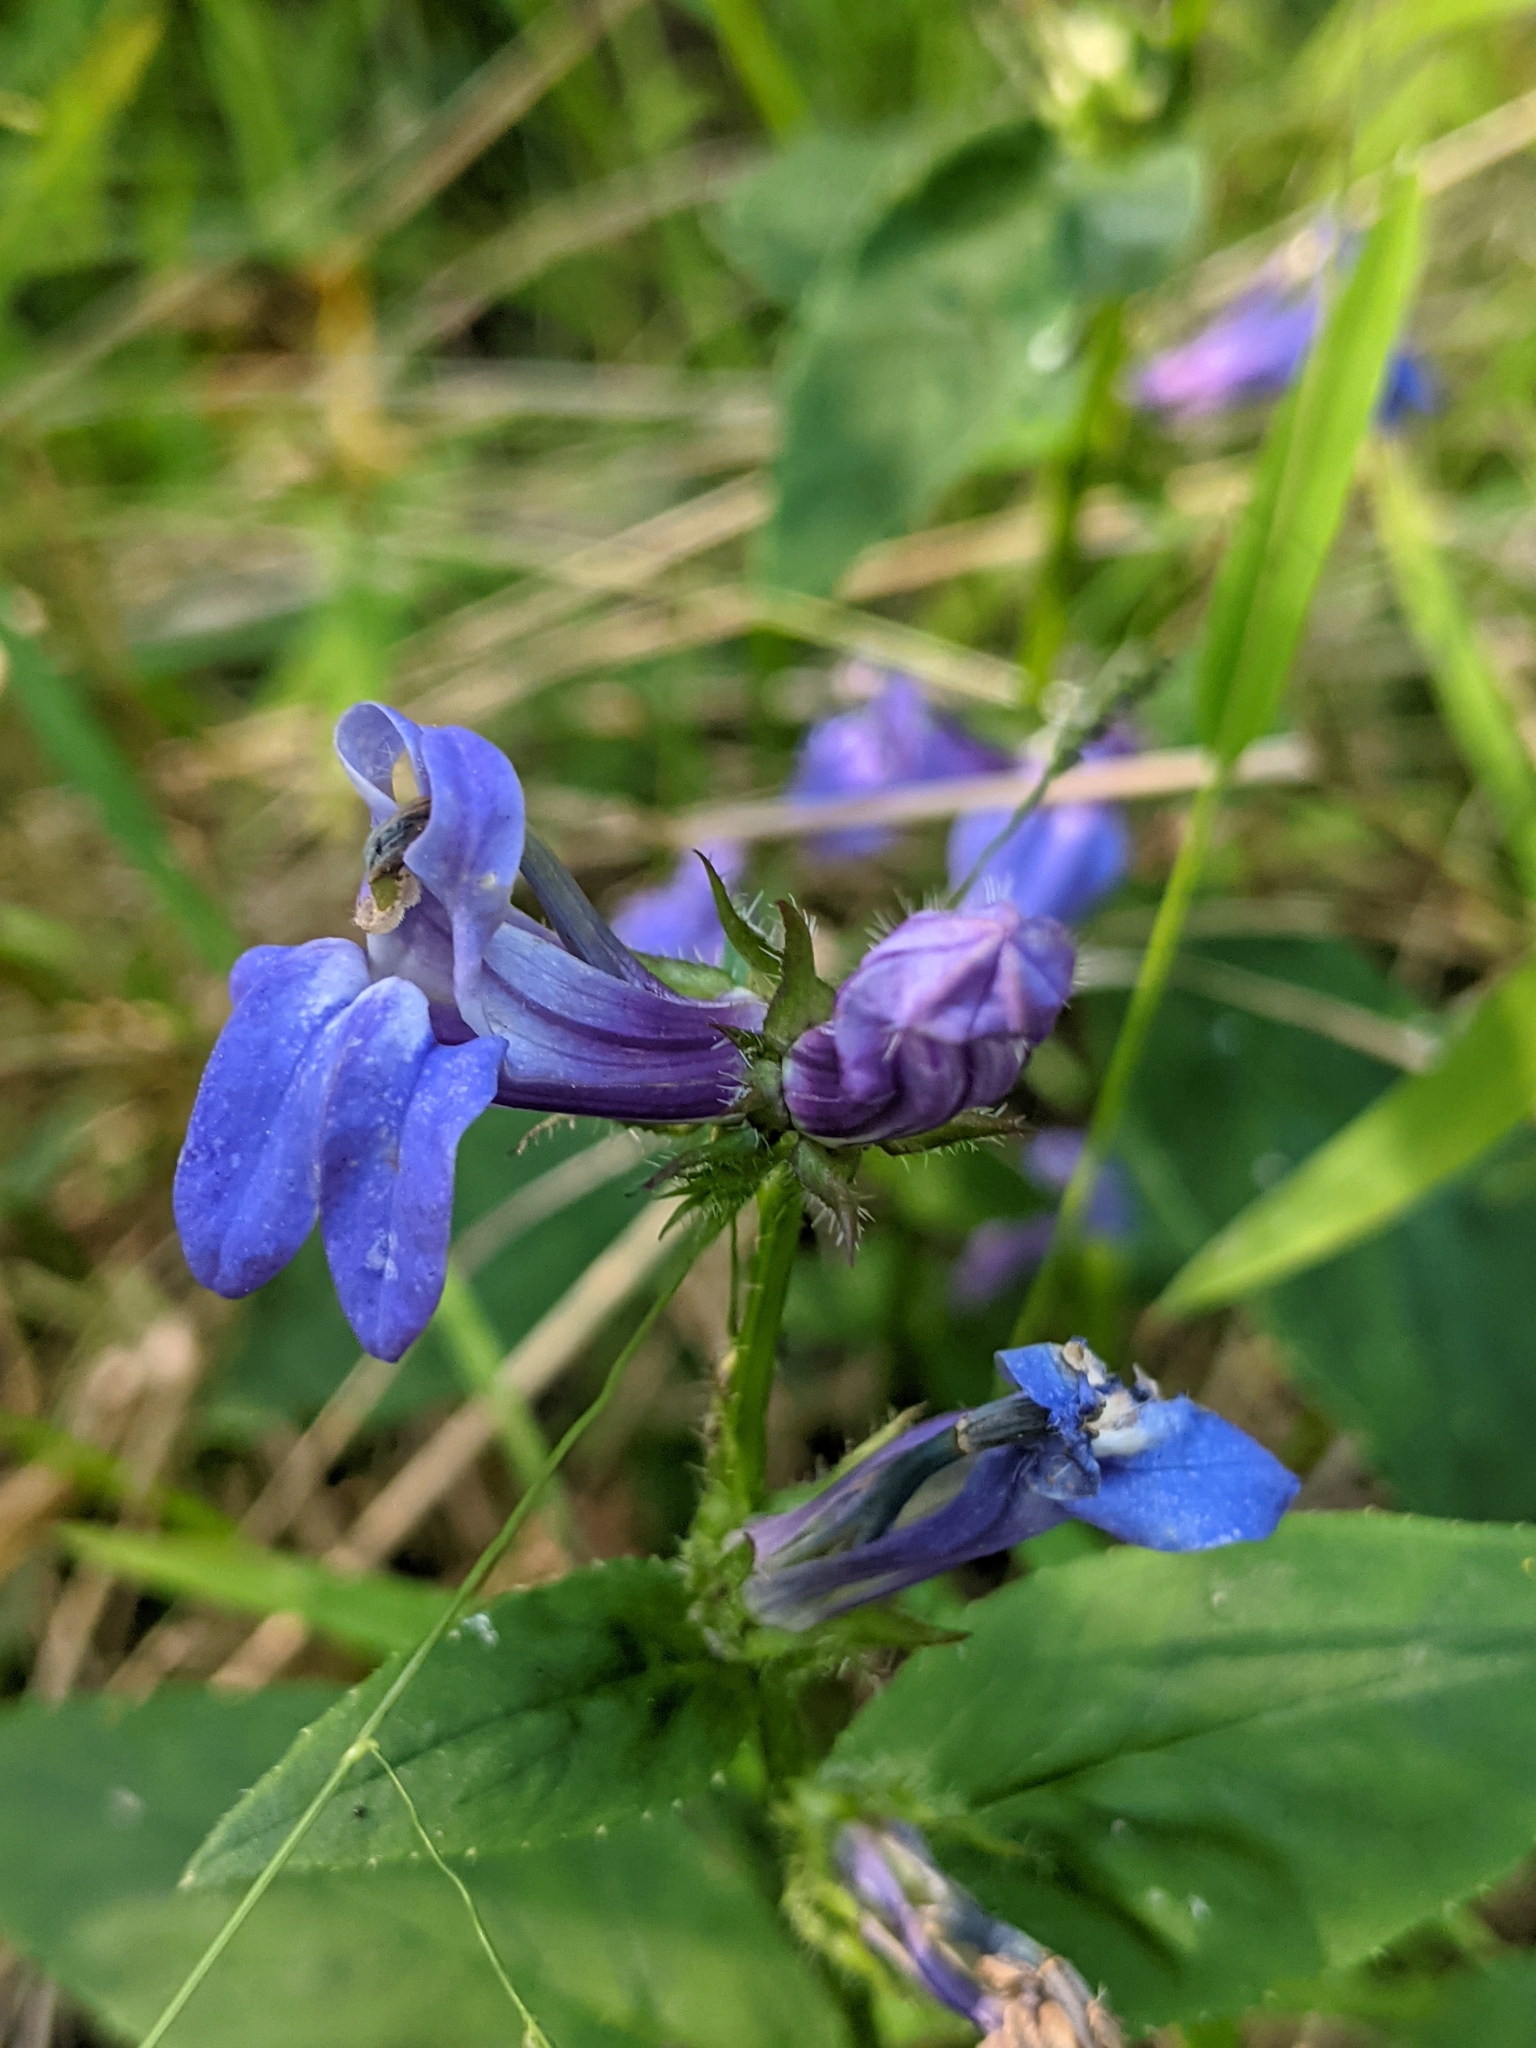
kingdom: Plantae
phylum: Tracheophyta
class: Magnoliopsida
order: Asterales
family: Campanulaceae
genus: Lobelia
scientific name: Lobelia siphilitica
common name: Great lobelia
